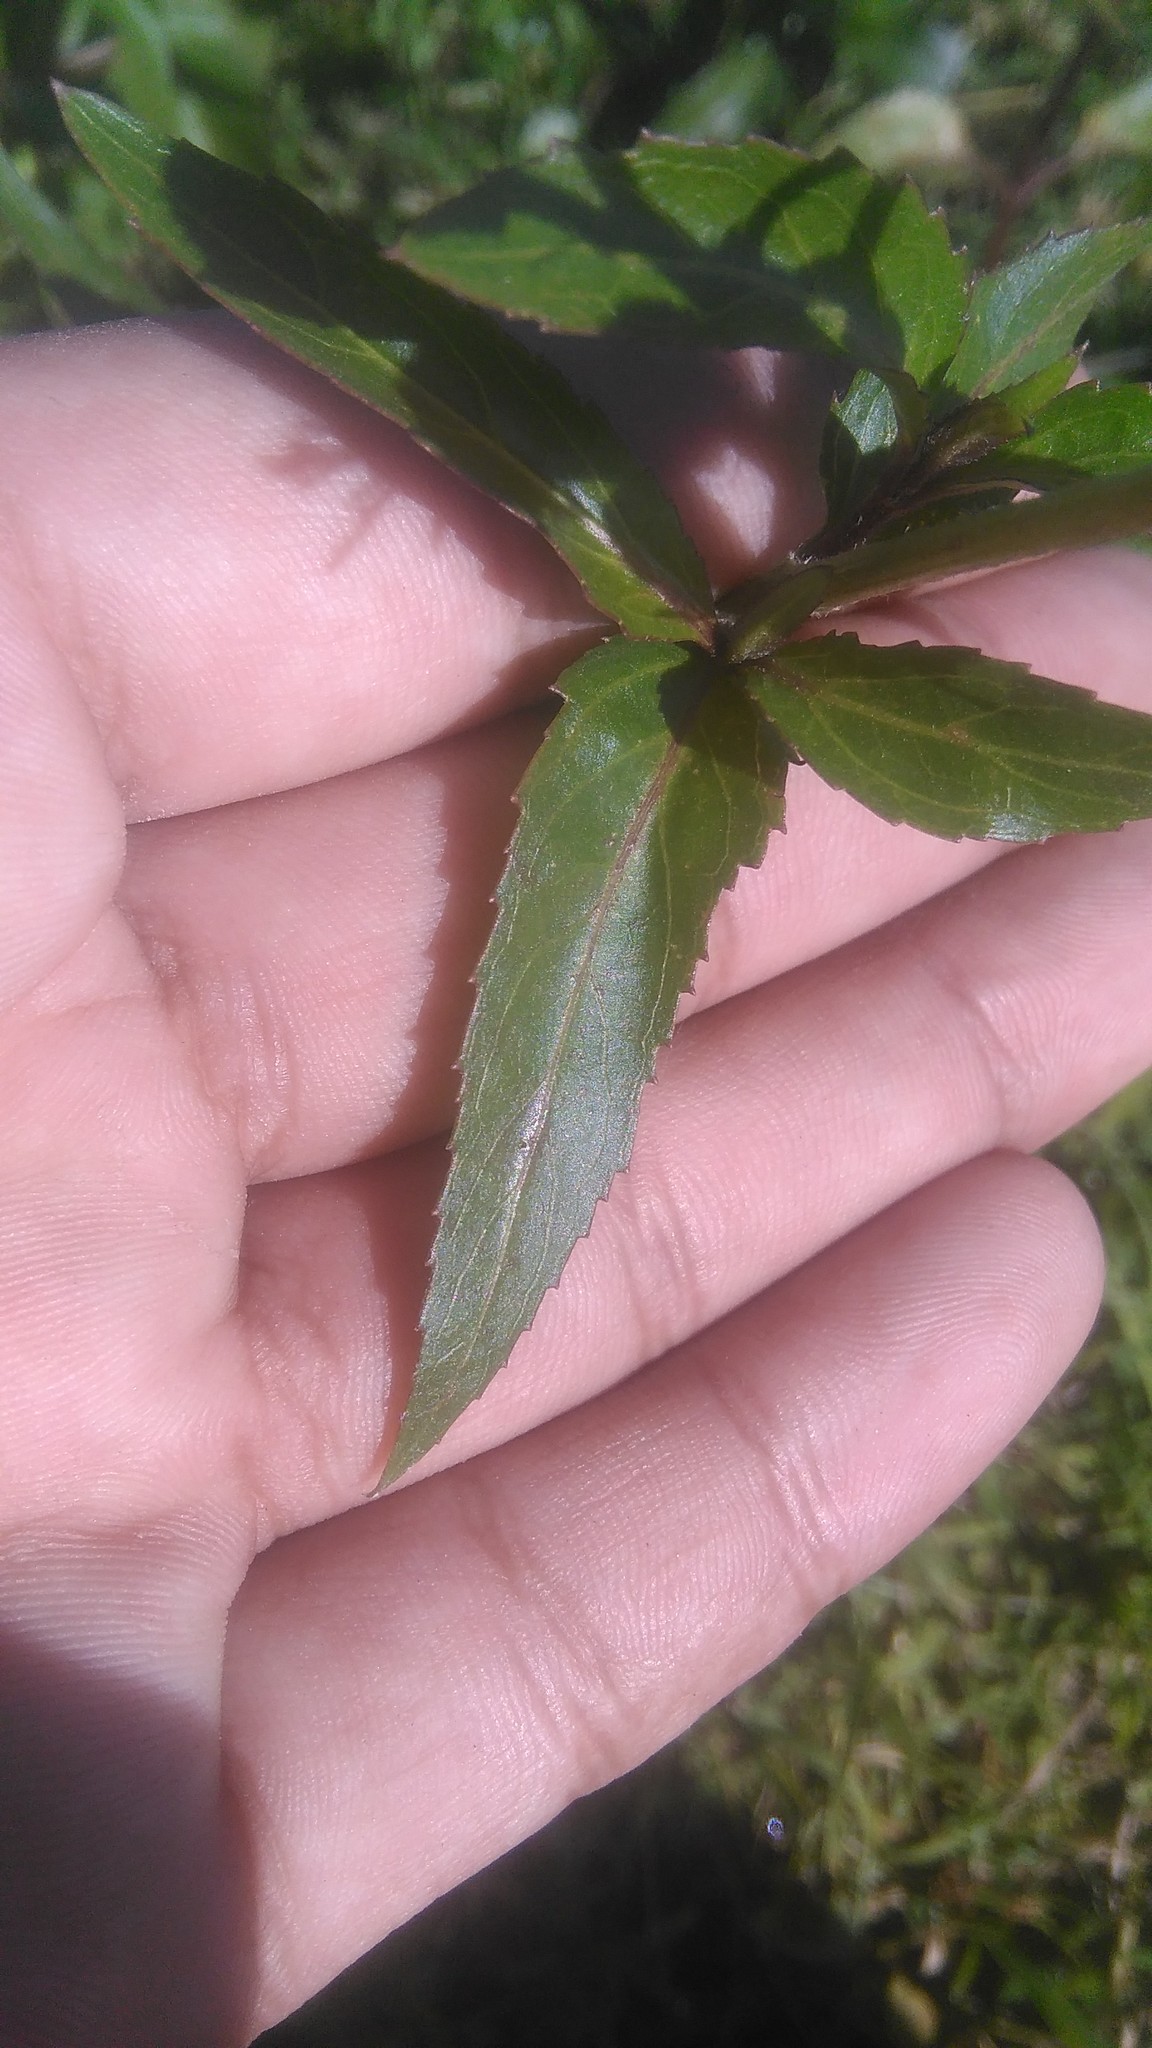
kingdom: Plantae
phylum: Tracheophyta
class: Magnoliopsida
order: Asterales
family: Asteraceae
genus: Gymnocoronis
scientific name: Gymnocoronis spilanthoides
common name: Senegal teaplant
